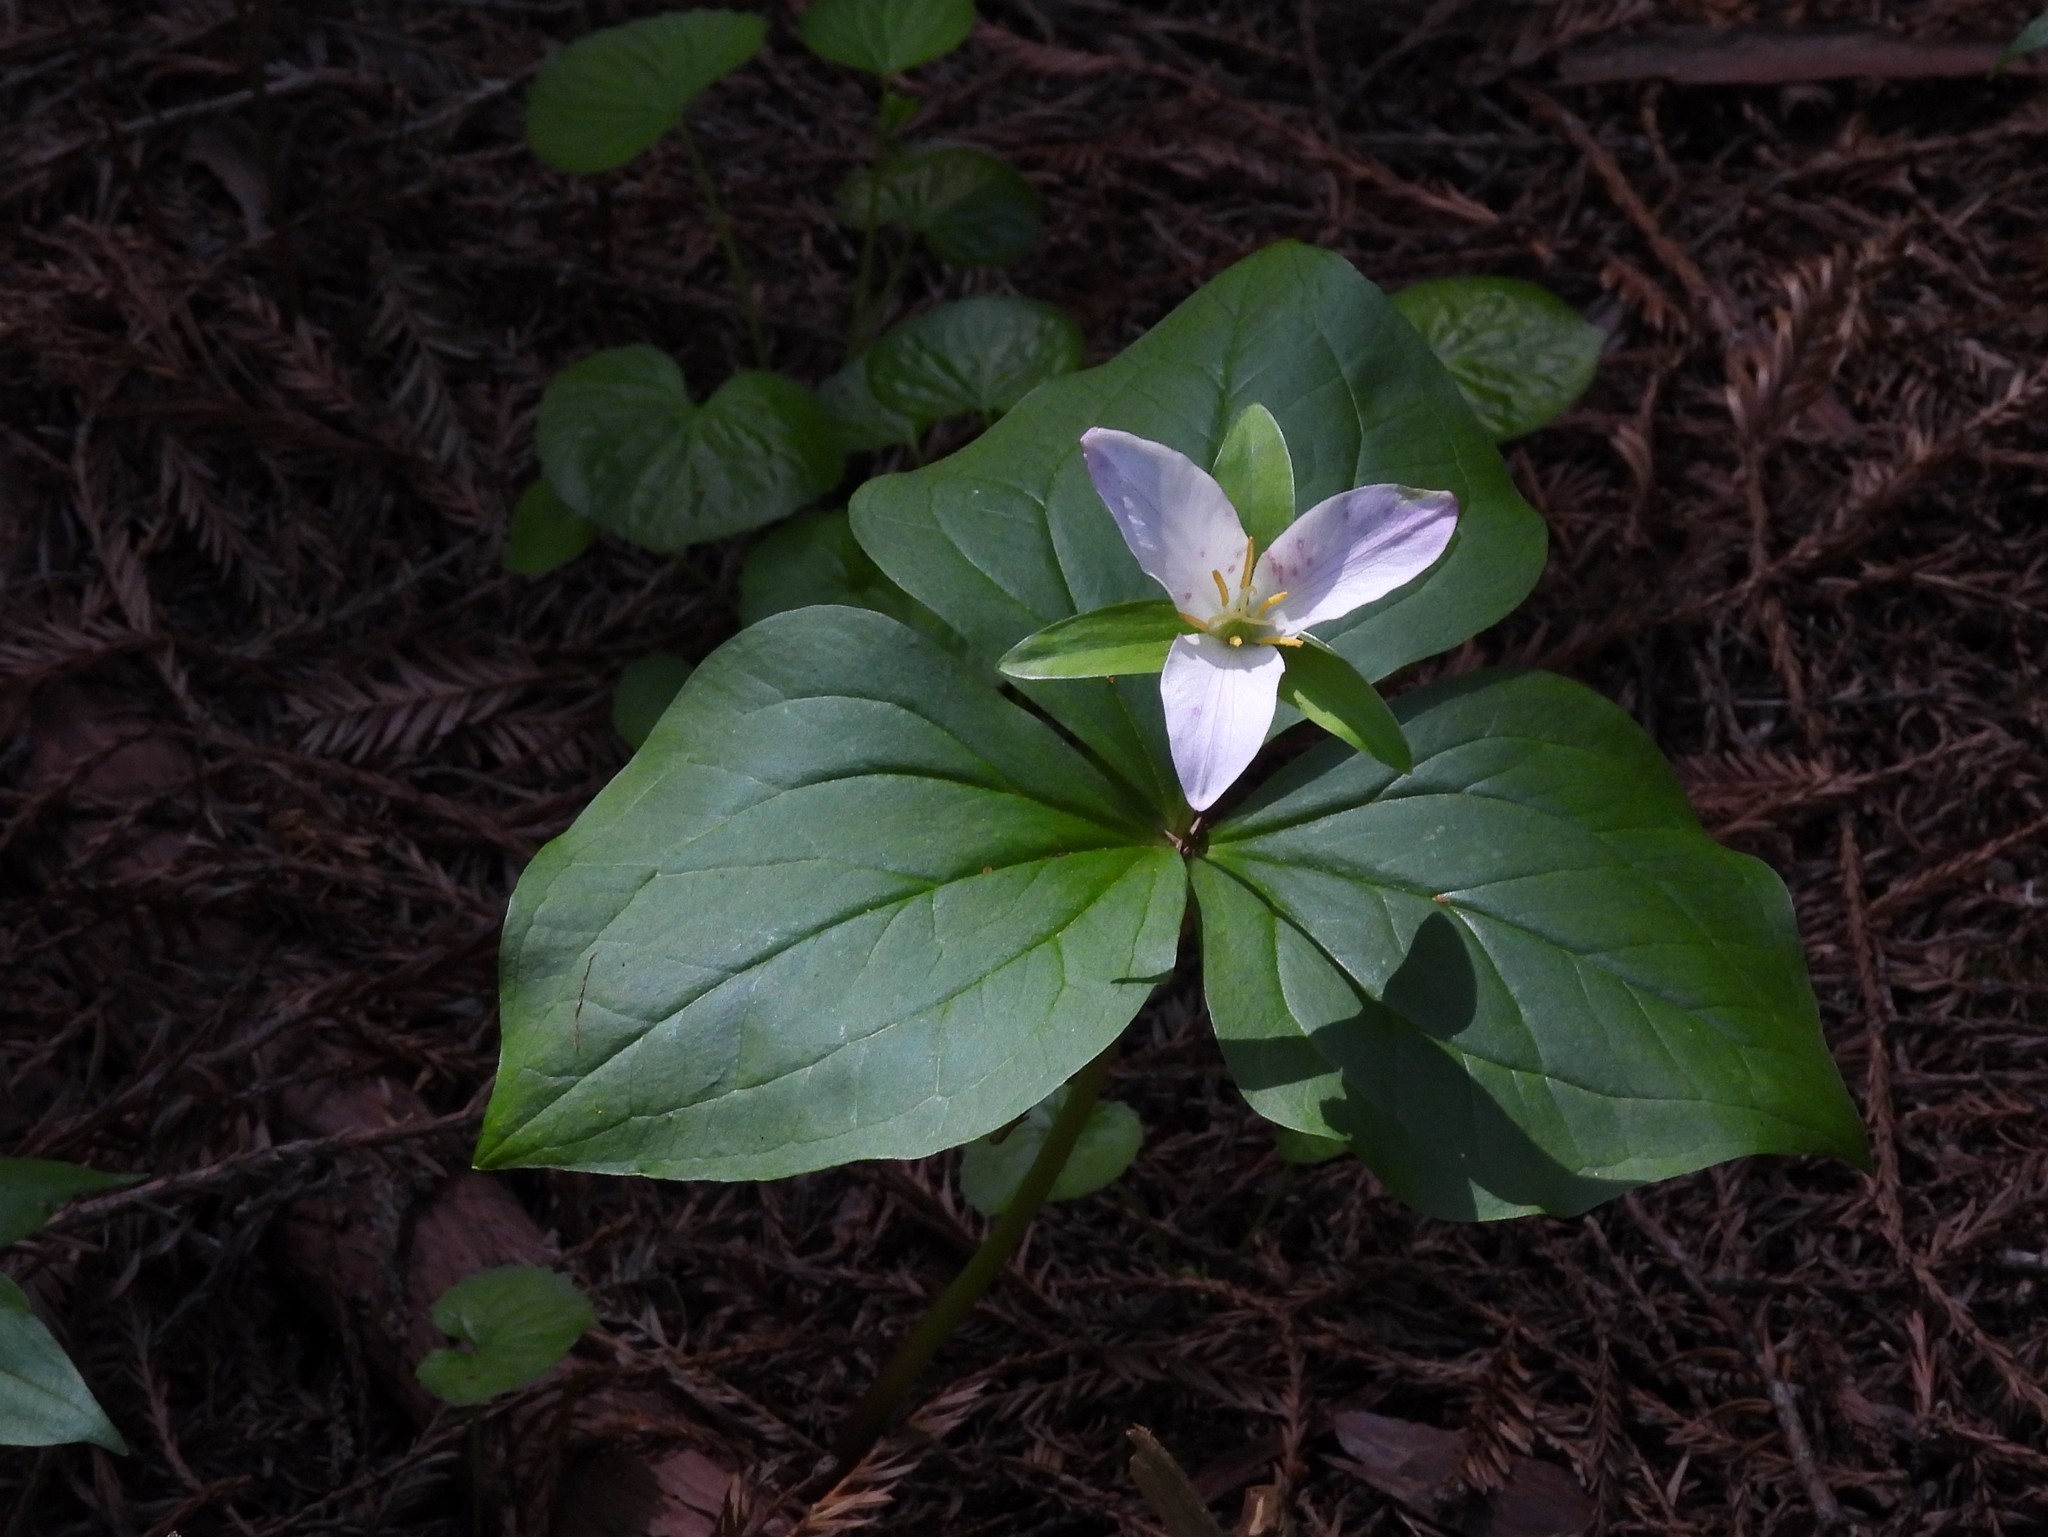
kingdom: Plantae
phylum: Tracheophyta
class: Liliopsida
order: Liliales
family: Melanthiaceae
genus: Trillium
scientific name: Trillium ovatum
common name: Pacific trillium
